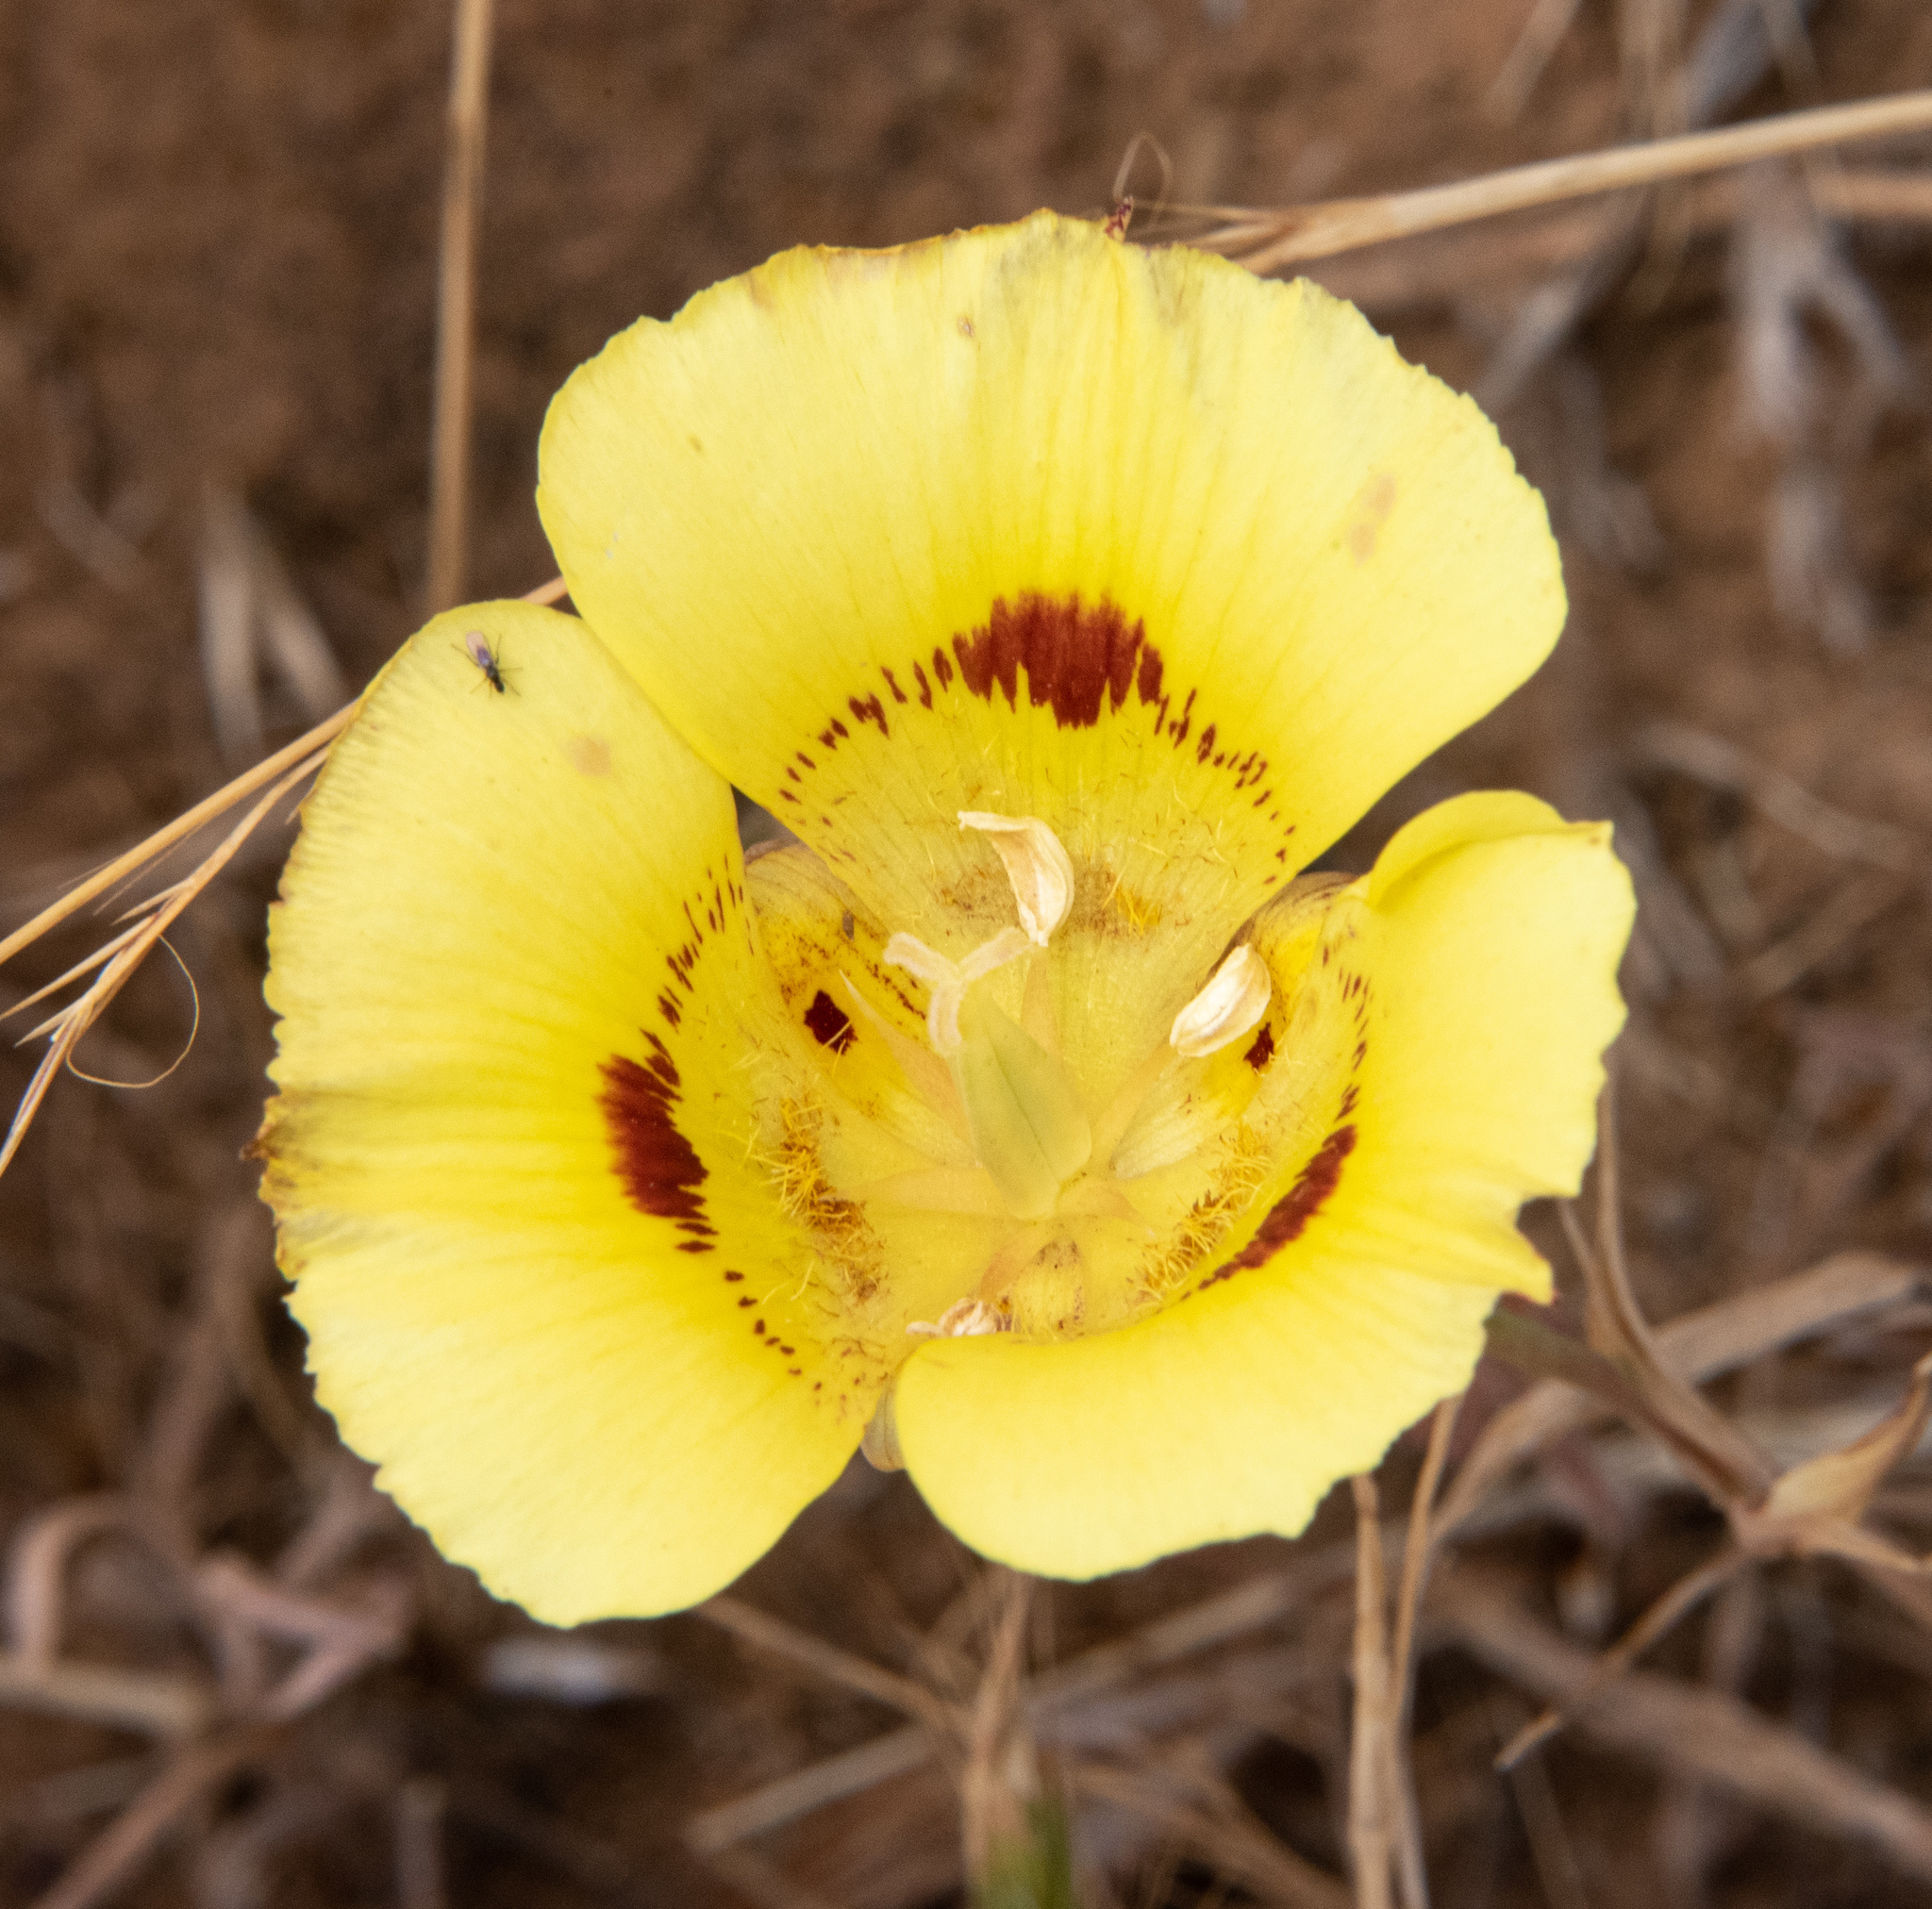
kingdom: Plantae
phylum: Tracheophyta
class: Liliopsida
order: Liliales
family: Liliaceae
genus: Calochortus
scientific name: Calochortus luteus
